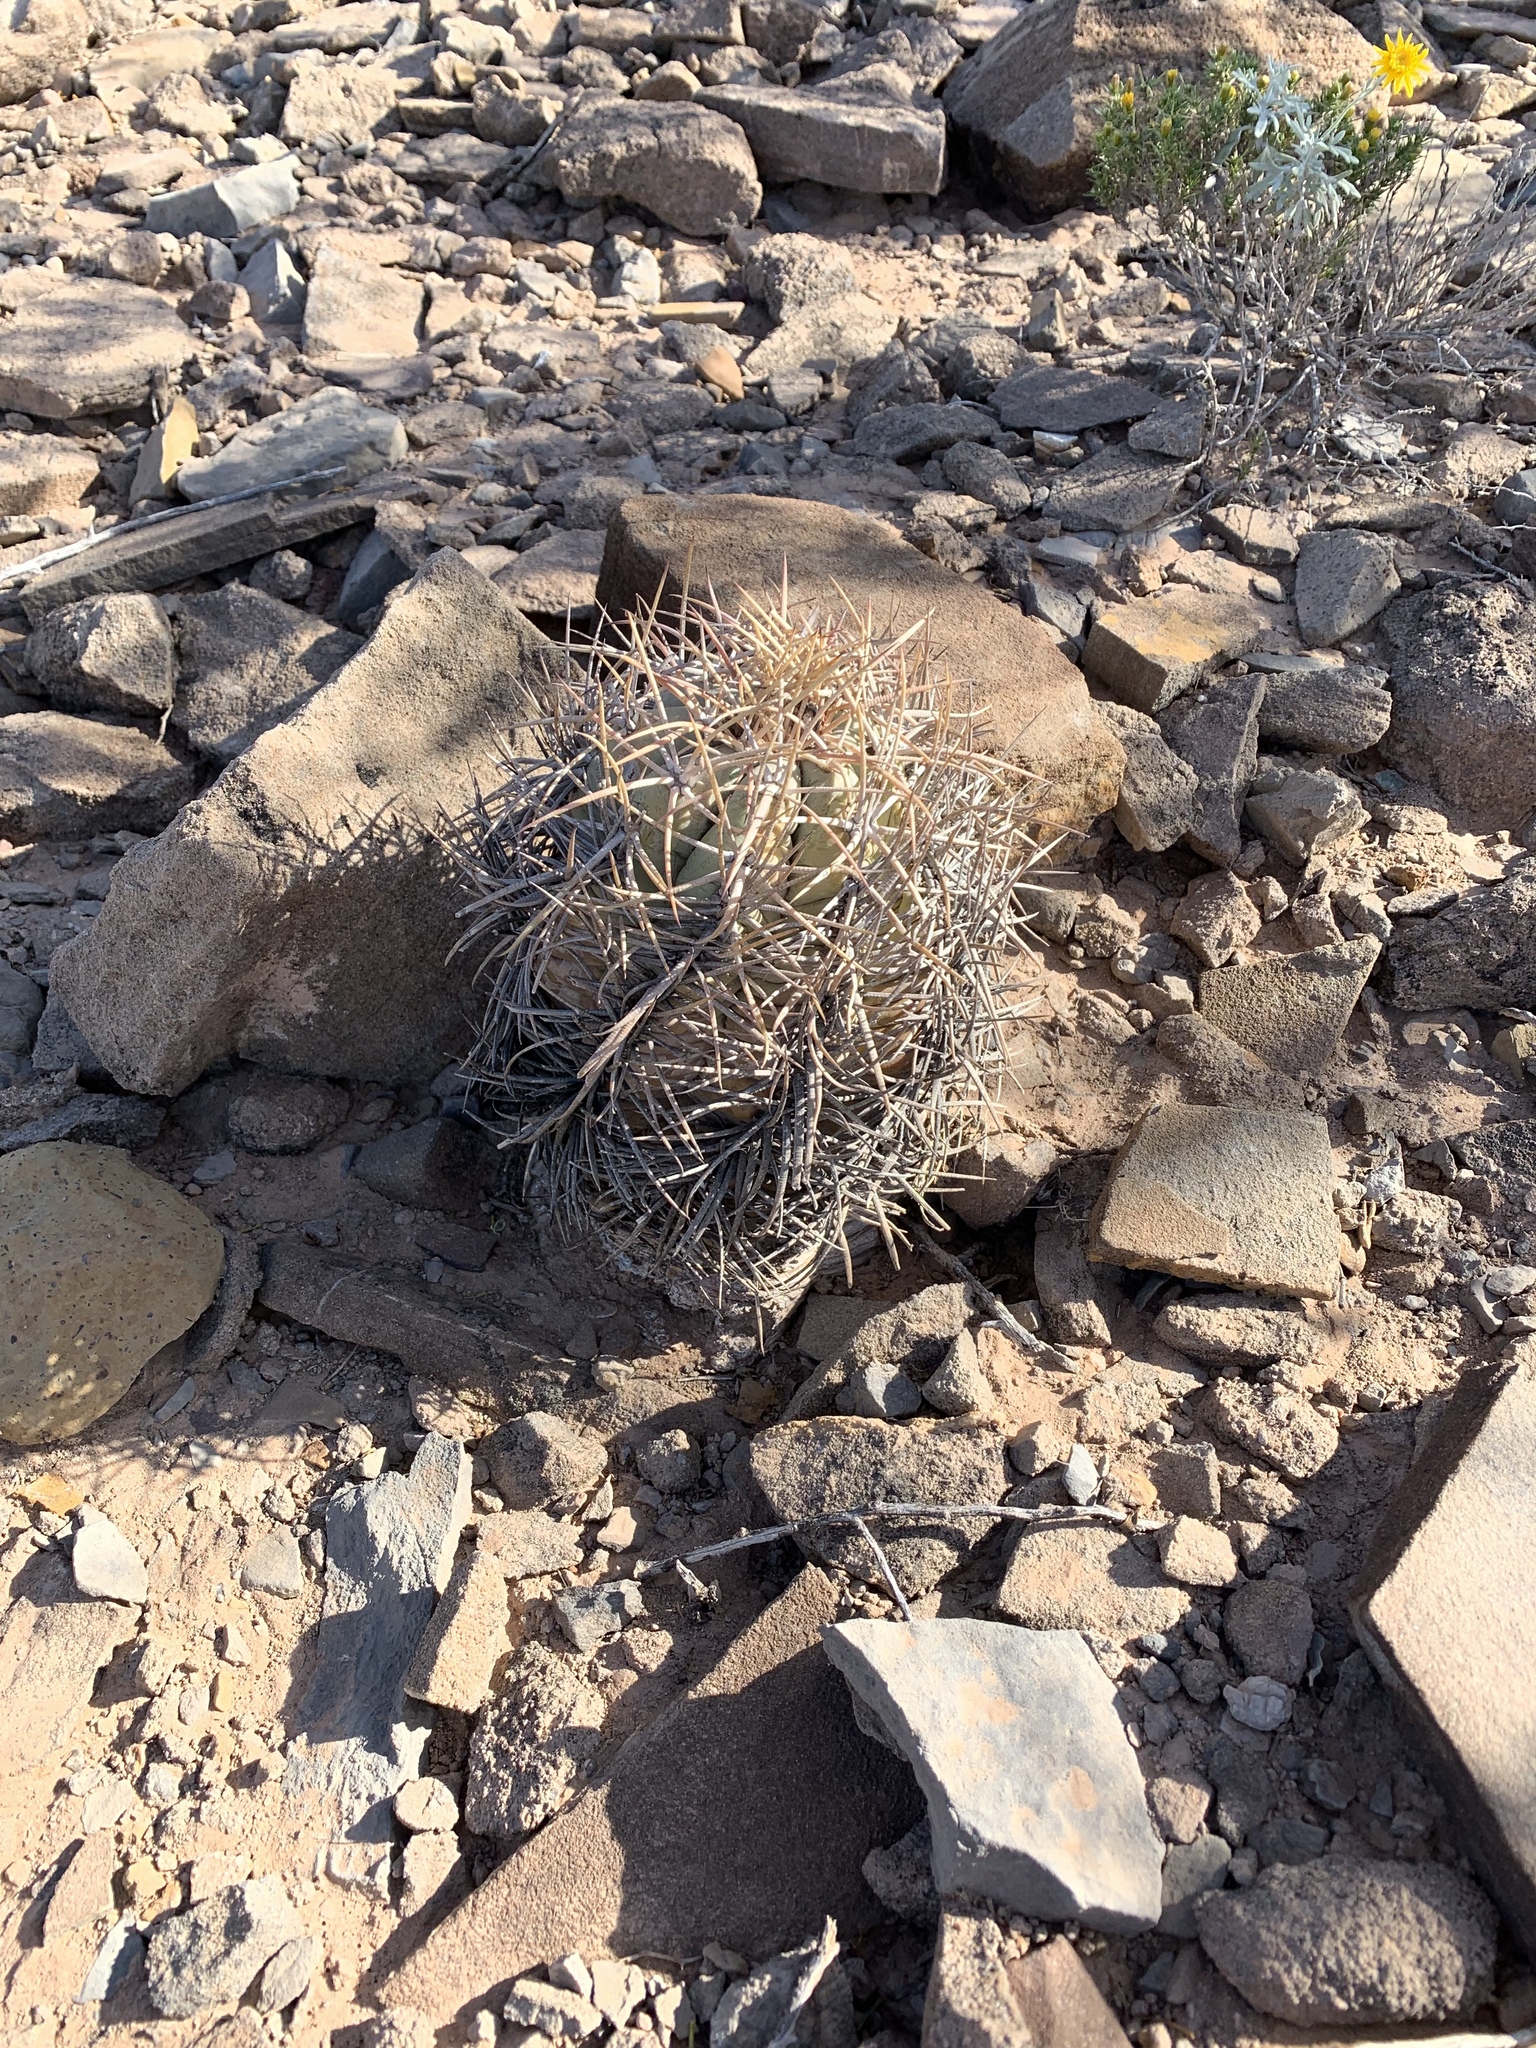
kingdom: Plantae
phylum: Tracheophyta
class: Magnoliopsida
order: Caryophyllales
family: Cactaceae
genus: Echinocactus
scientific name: Echinocactus horizonthalonius
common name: Devilshead
